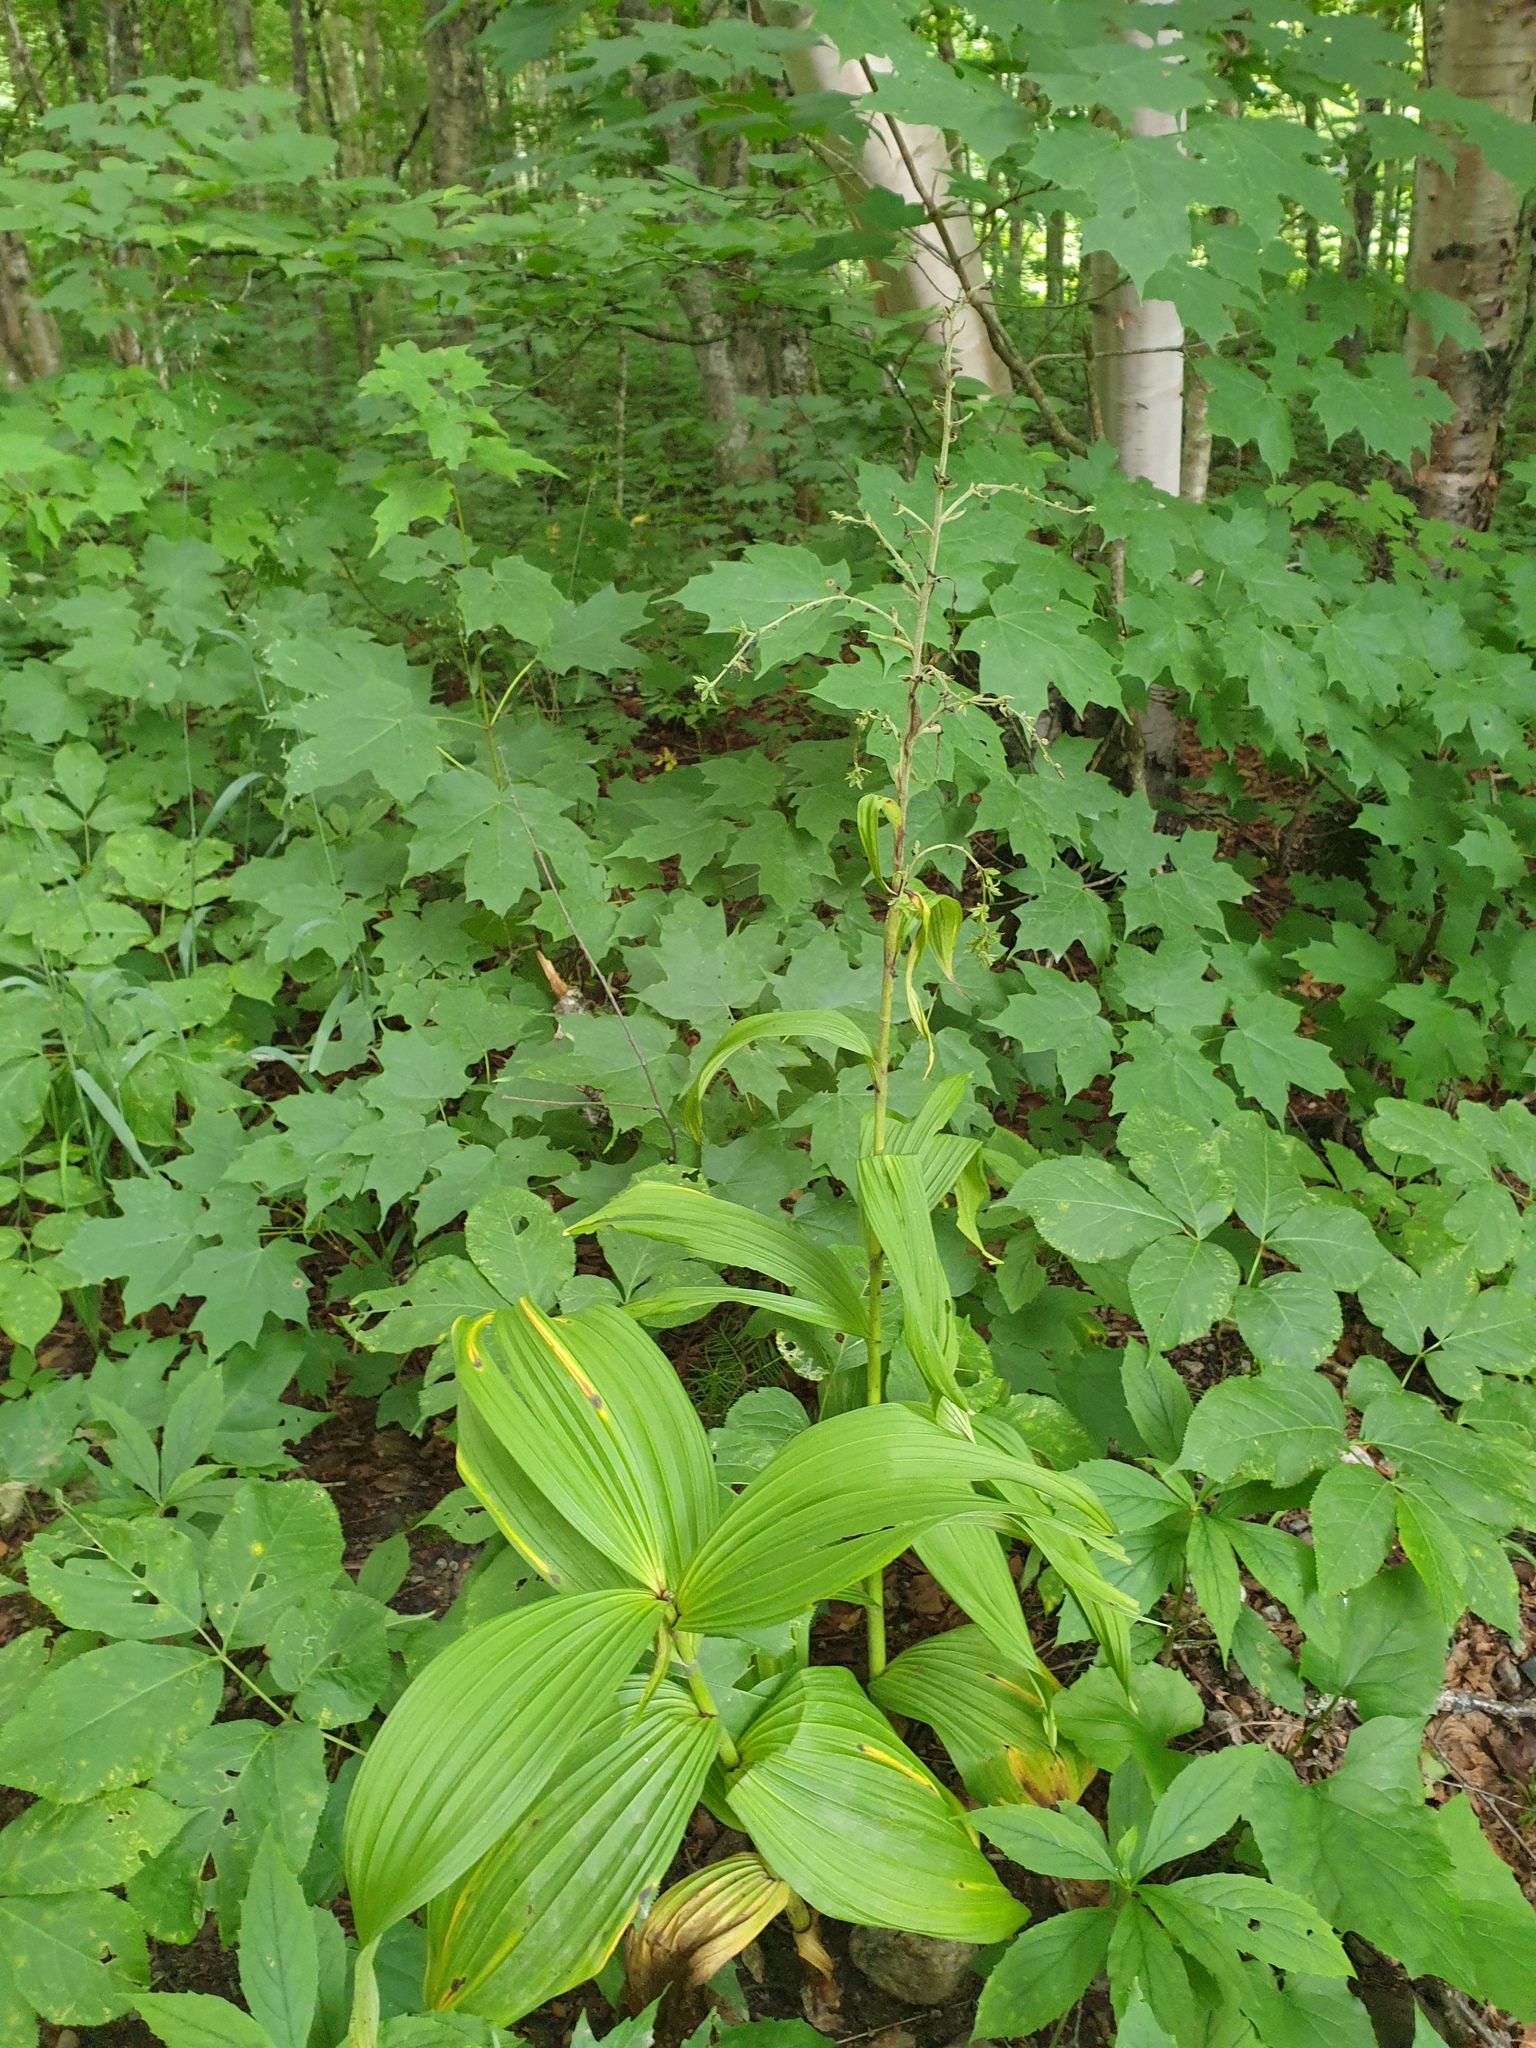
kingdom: Plantae
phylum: Tracheophyta
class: Liliopsida
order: Liliales
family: Melanthiaceae
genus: Veratrum
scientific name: Veratrum viride
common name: American false hellebore
